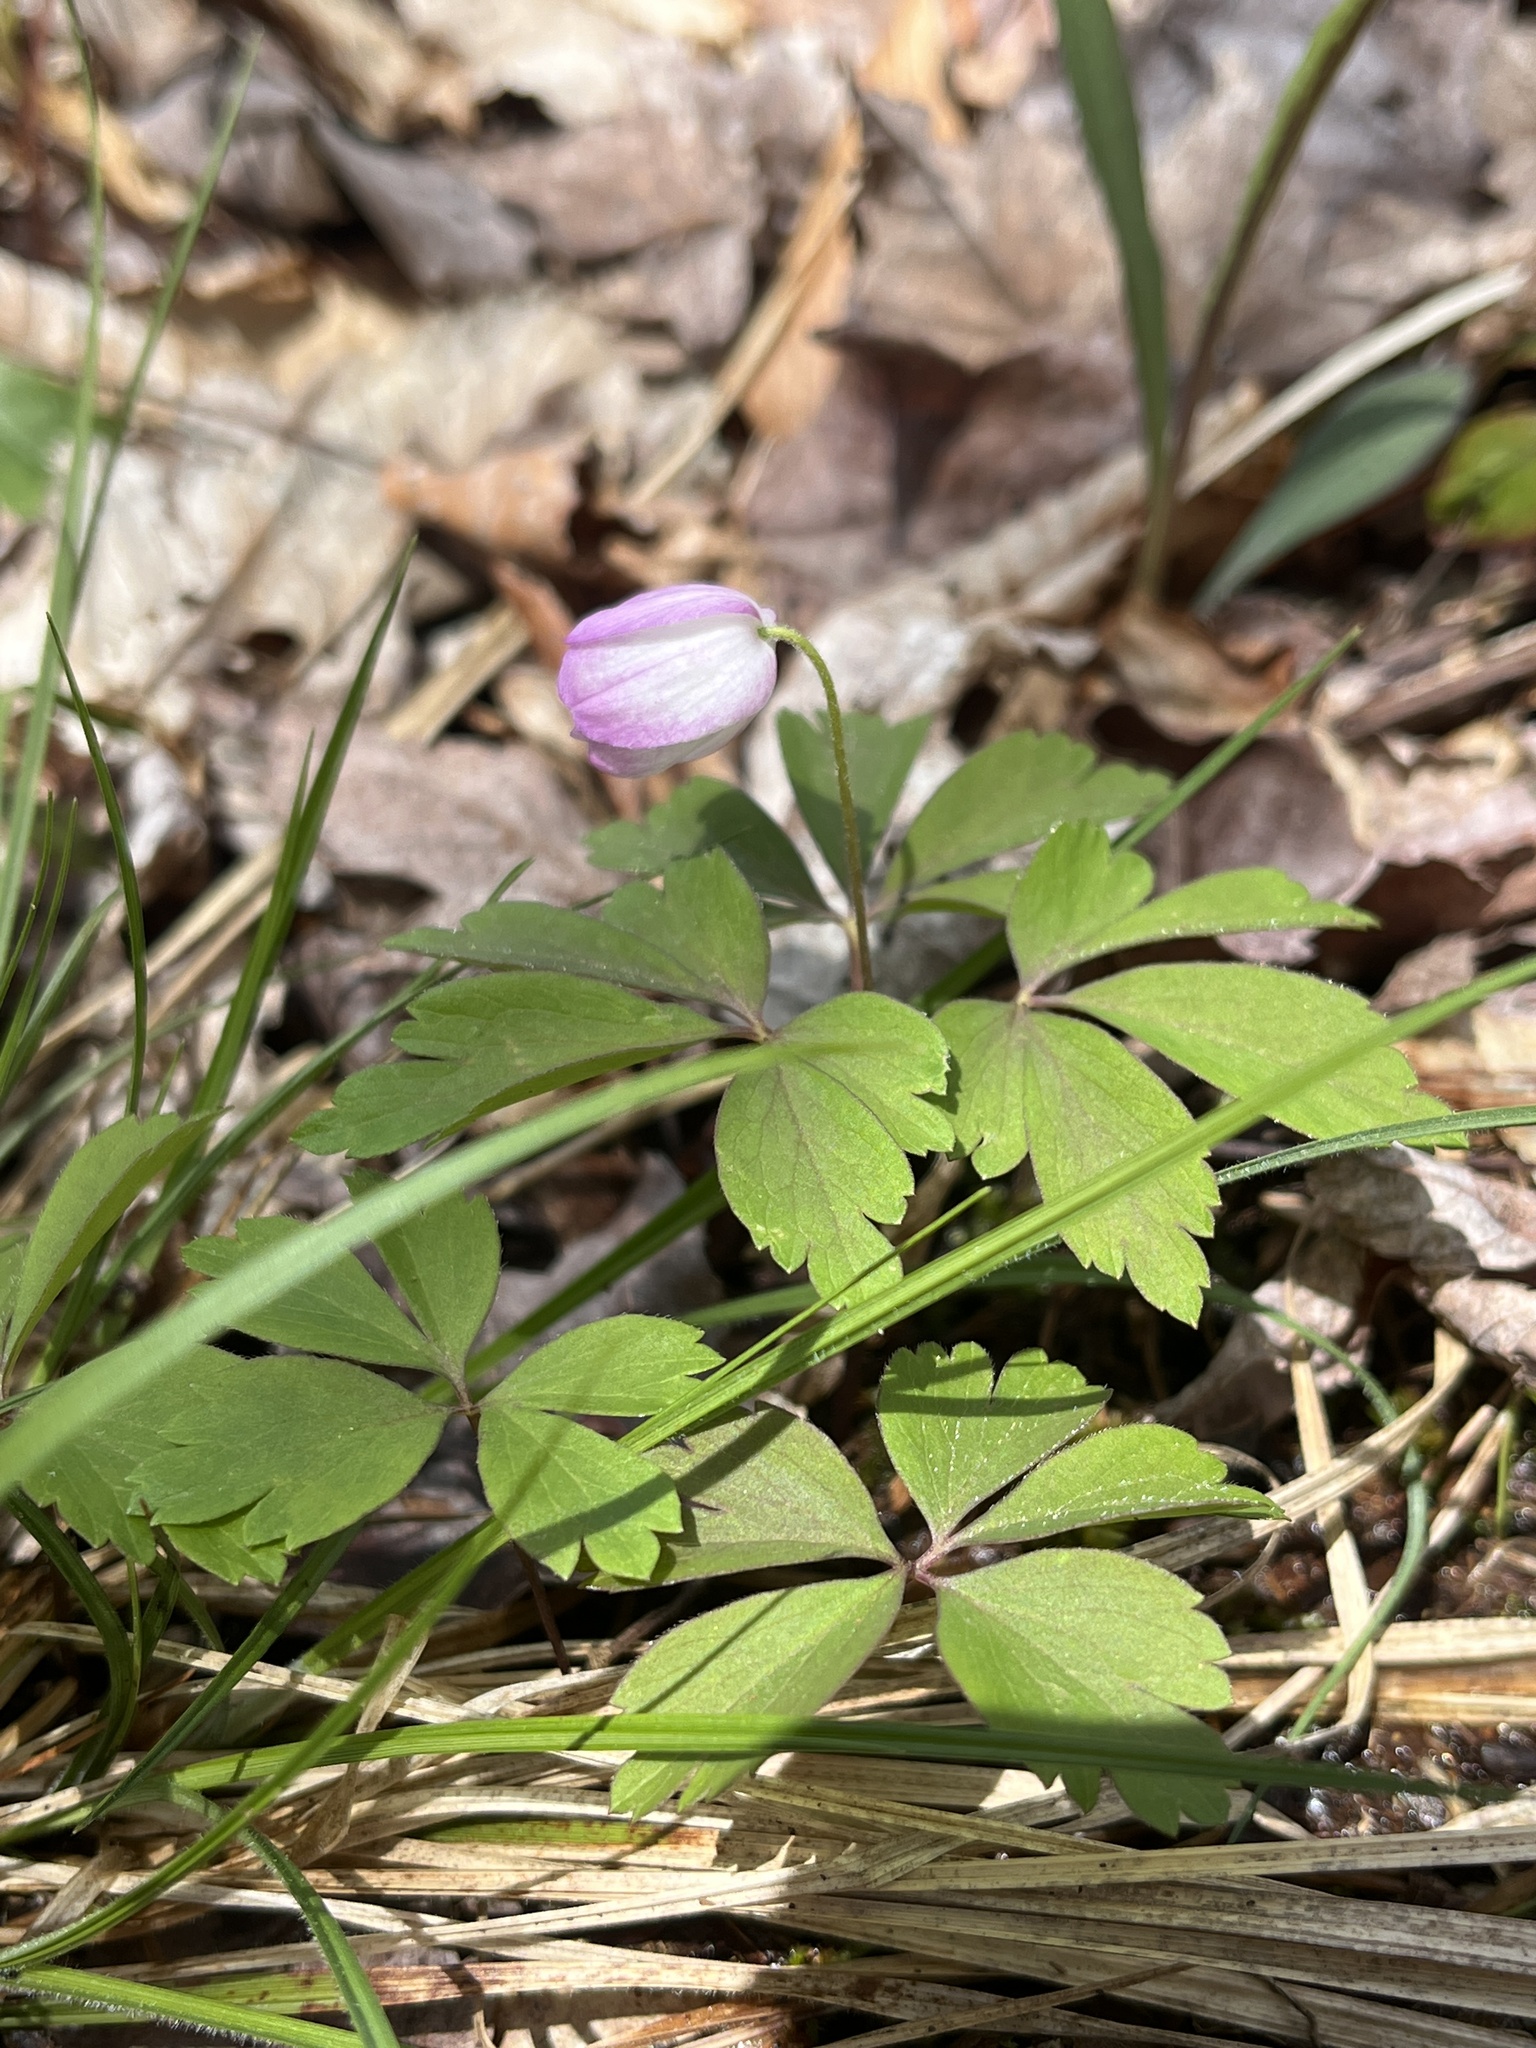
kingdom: Plantae
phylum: Tracheophyta
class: Magnoliopsida
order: Ranunculales
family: Ranunculaceae
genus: Anemone
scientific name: Anemone quinquefolia
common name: Wood anemone
